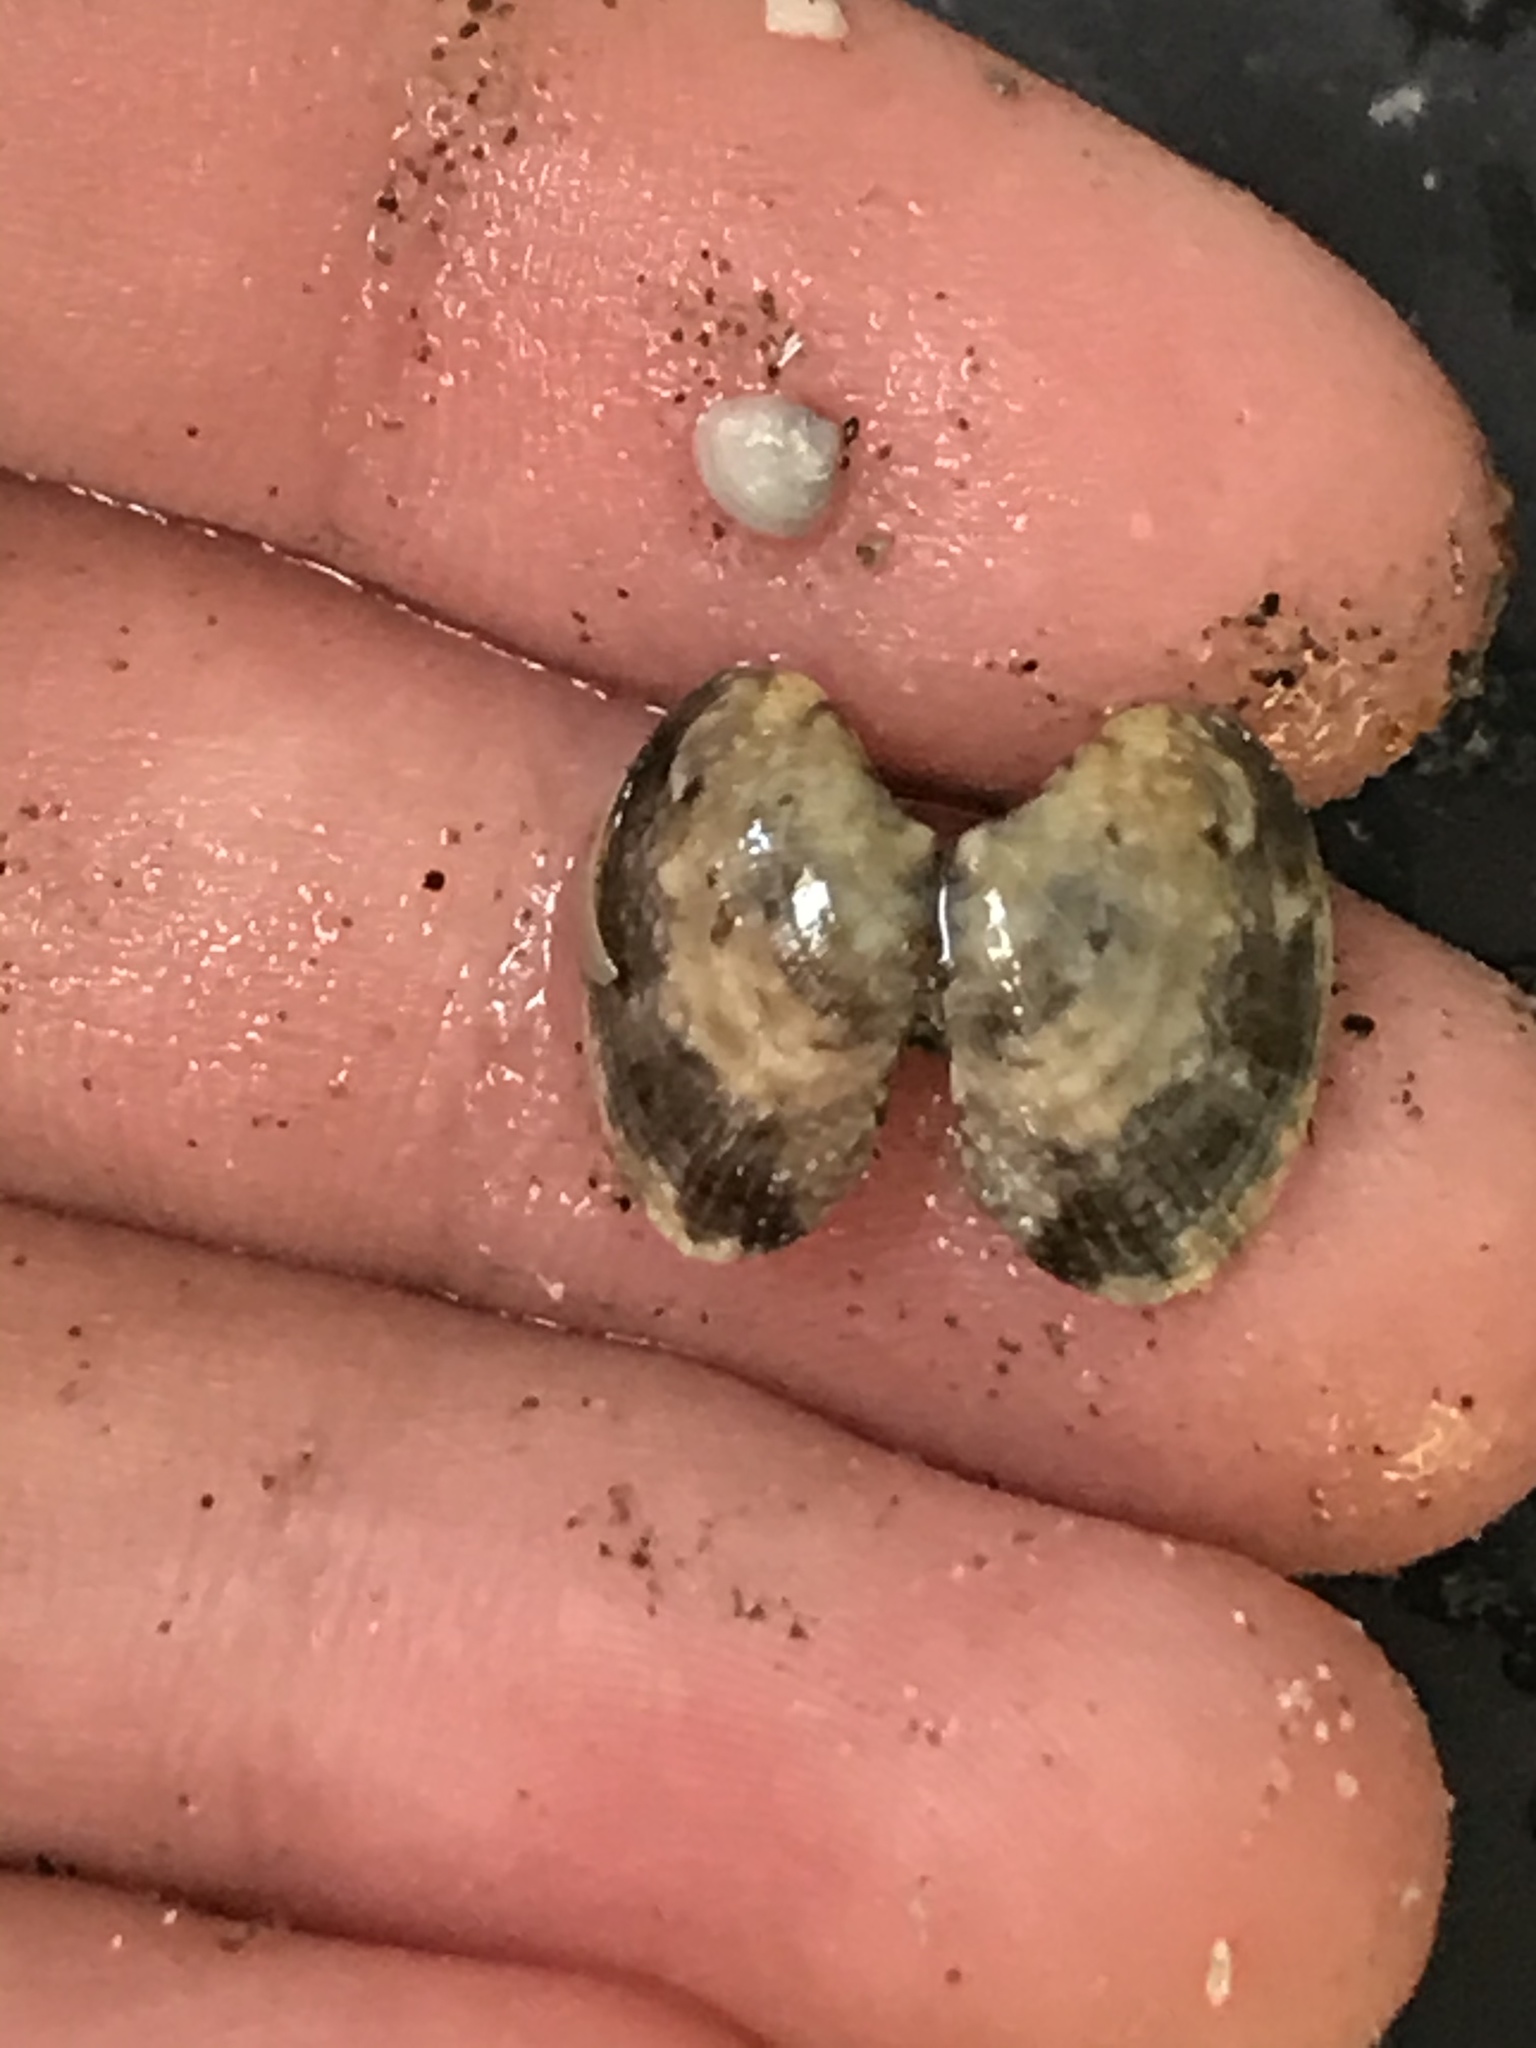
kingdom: Animalia
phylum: Mollusca
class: Bivalvia
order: Venerida
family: Veneridae
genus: Ruditapes
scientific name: Ruditapes philippinarum
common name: Manila clam
